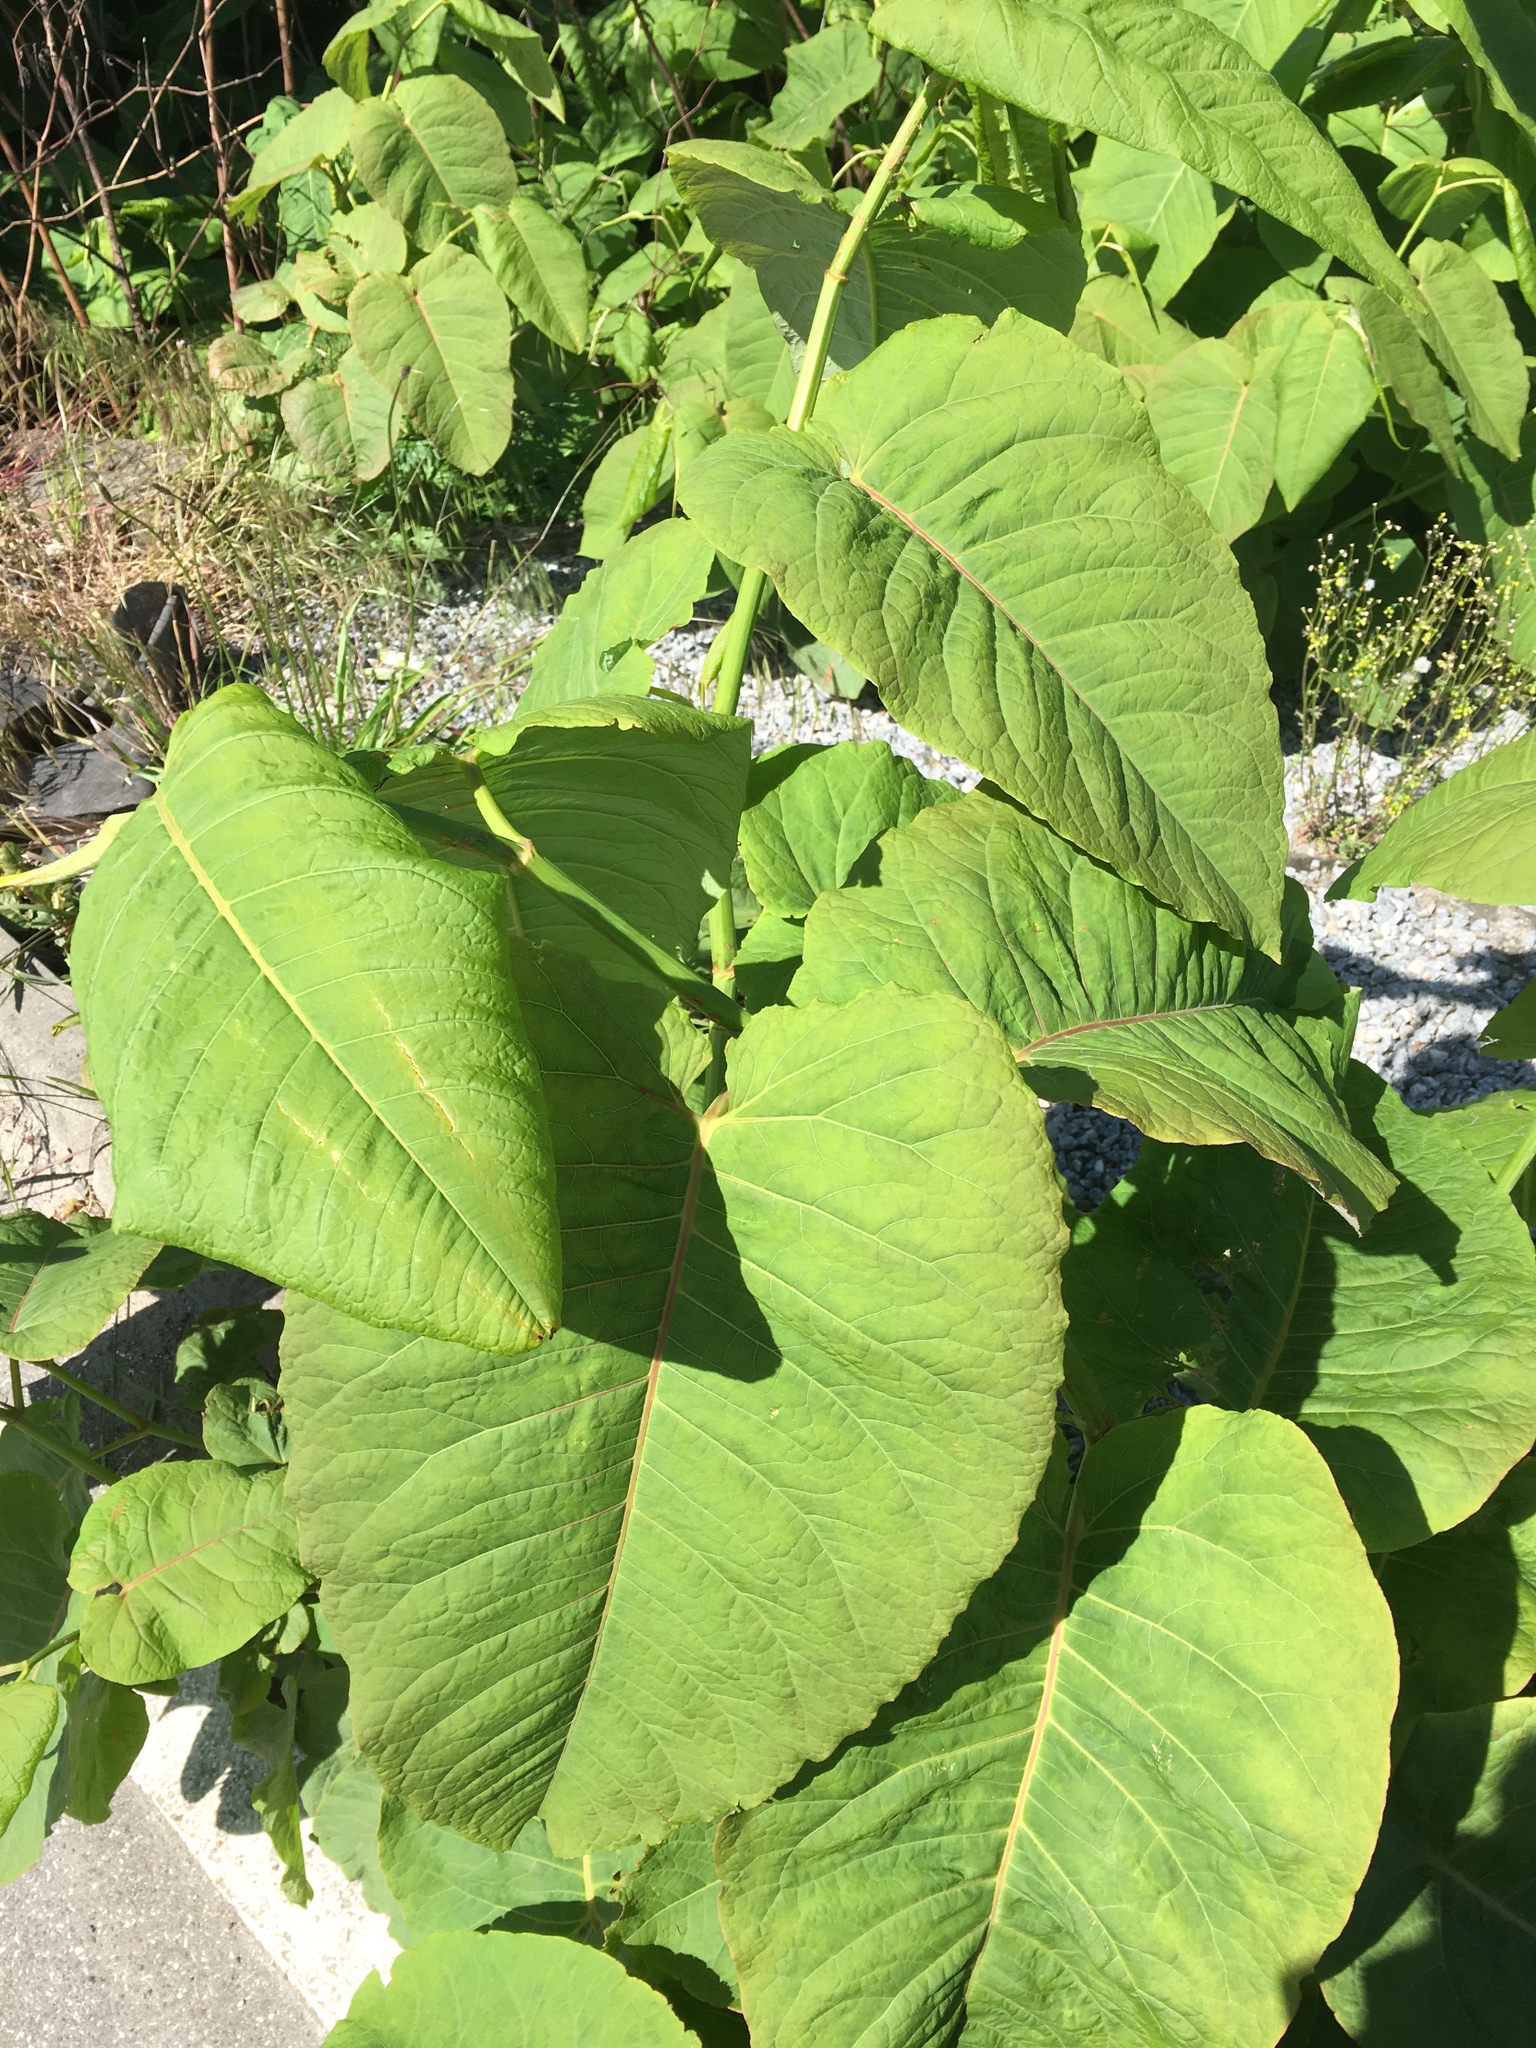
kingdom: Plantae
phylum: Tracheophyta
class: Magnoliopsida
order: Caryophyllales
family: Polygonaceae
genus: Reynoutria
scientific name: Reynoutria sachalinensis
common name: Giant knotweed
